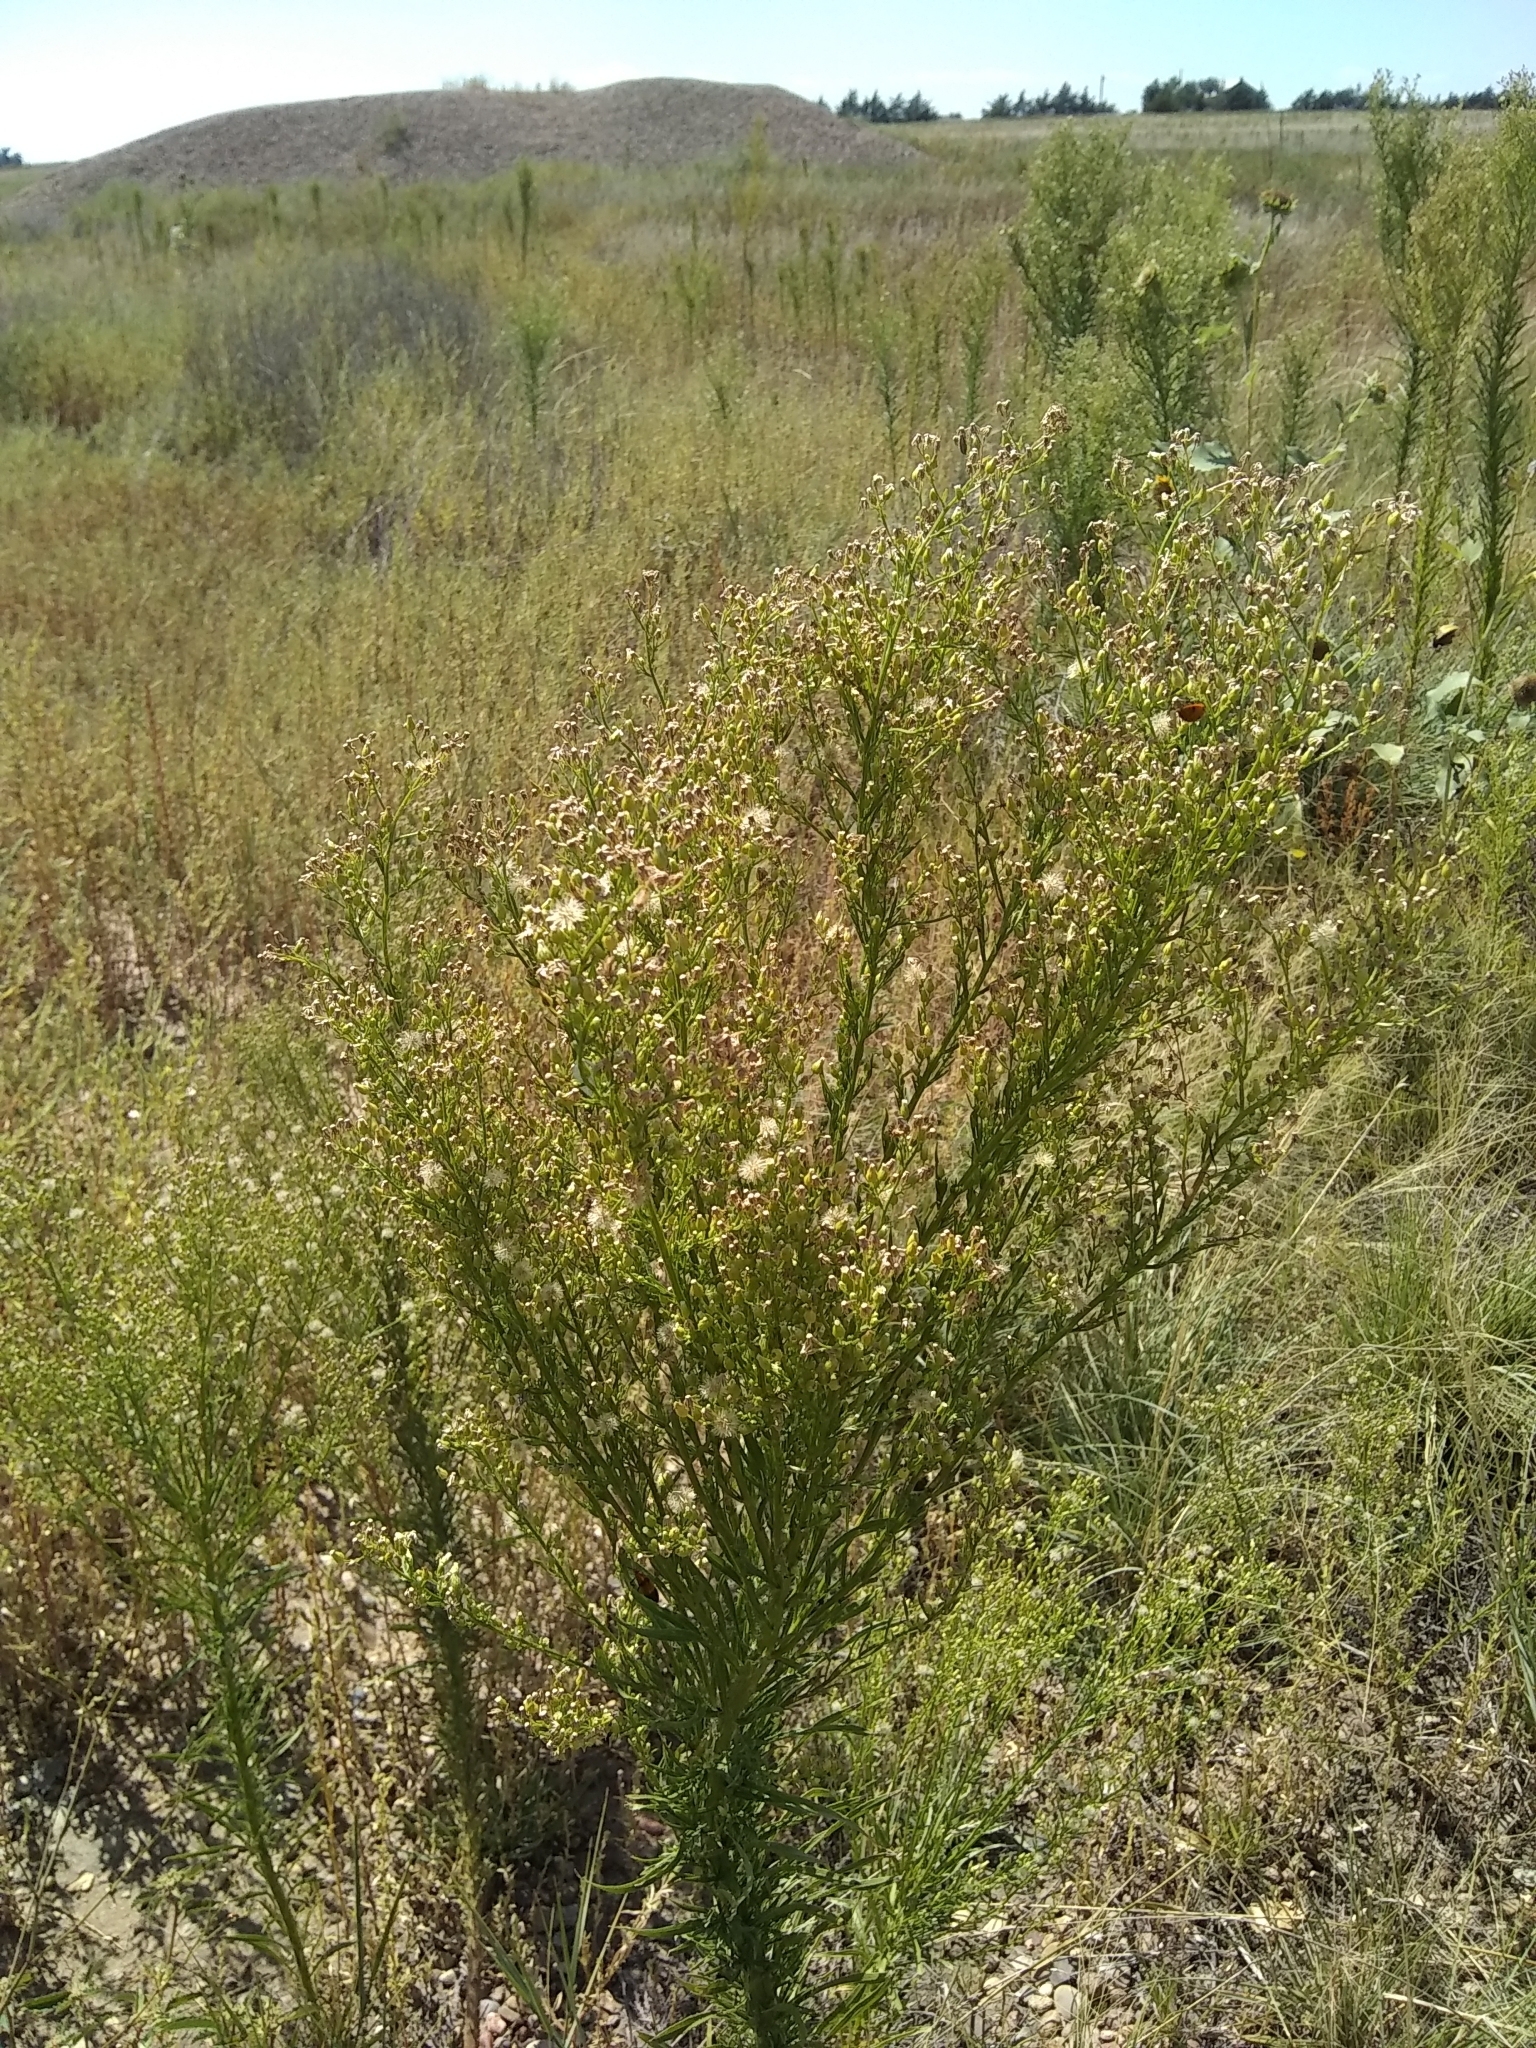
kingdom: Plantae
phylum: Tracheophyta
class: Magnoliopsida
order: Asterales
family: Asteraceae
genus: Erigeron
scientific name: Erigeron canadensis
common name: Canadian fleabane
